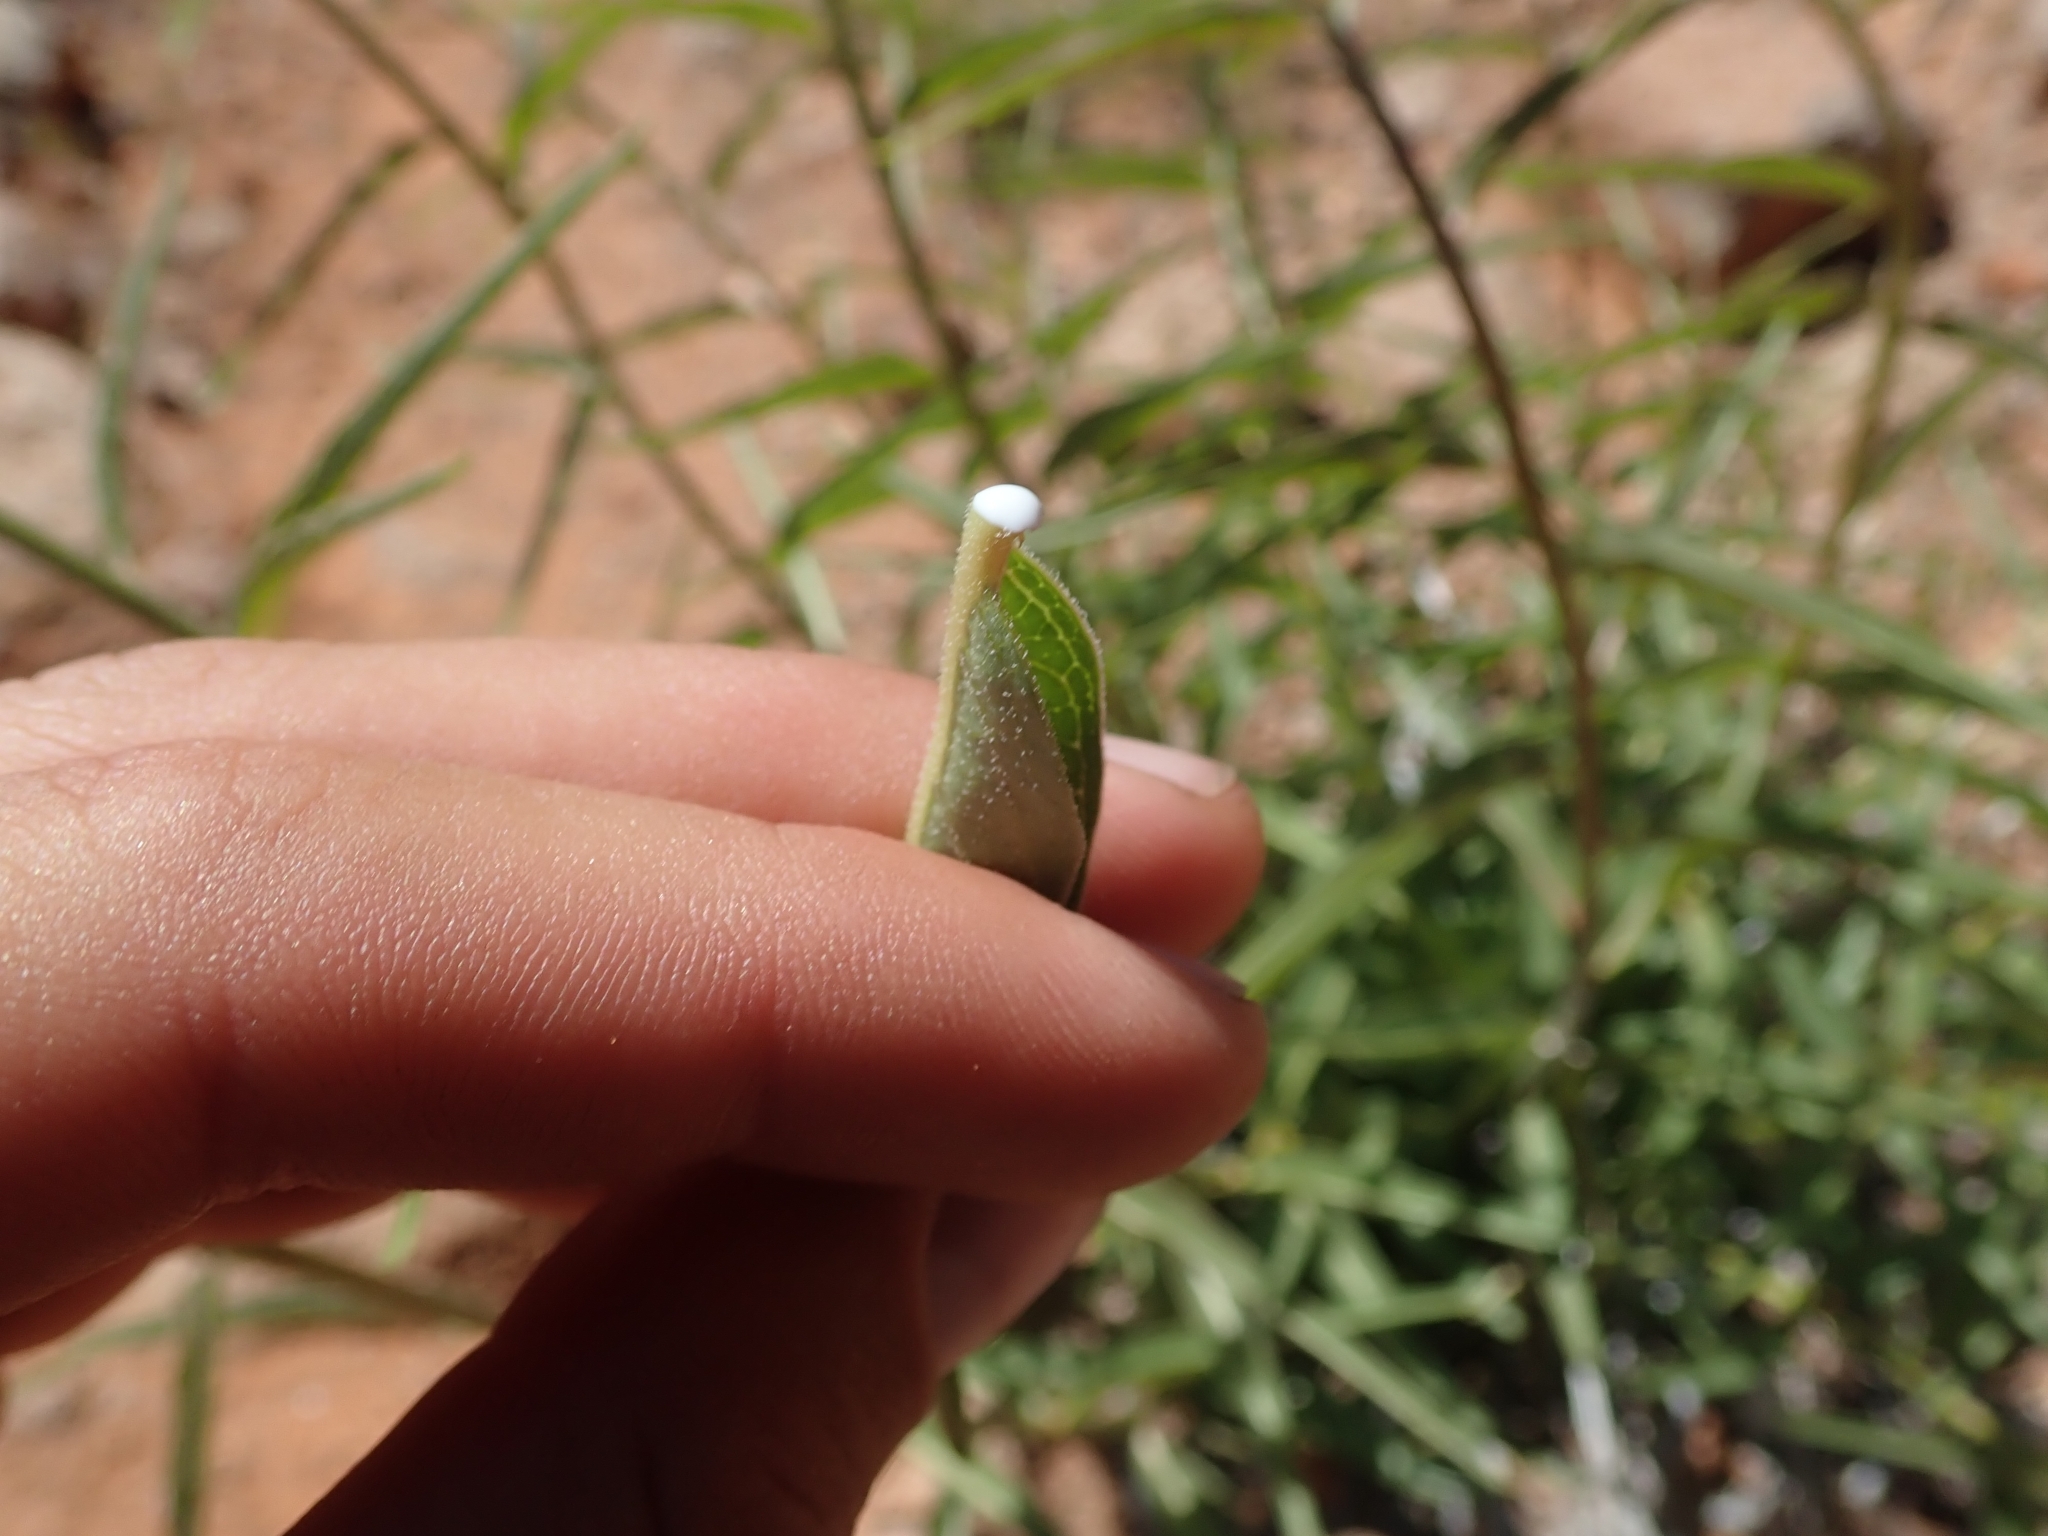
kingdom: Plantae
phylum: Tracheophyta
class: Magnoliopsida
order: Gentianales
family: Apocynaceae
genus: Asclepias
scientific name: Asclepias asperula
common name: Antelope horns
